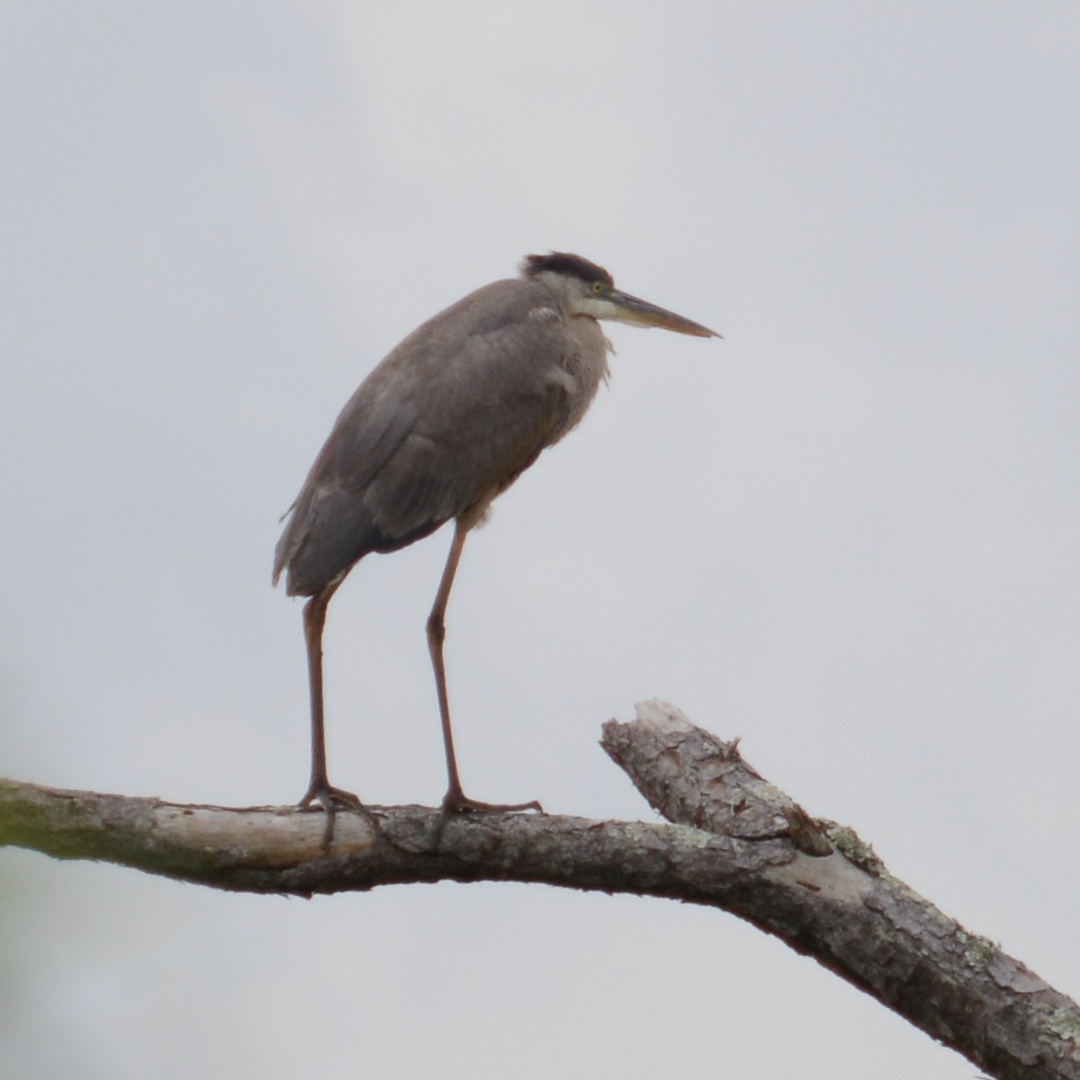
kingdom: Animalia
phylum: Chordata
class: Aves
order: Pelecaniformes
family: Ardeidae
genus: Ardea
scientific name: Ardea herodias
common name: Great blue heron
